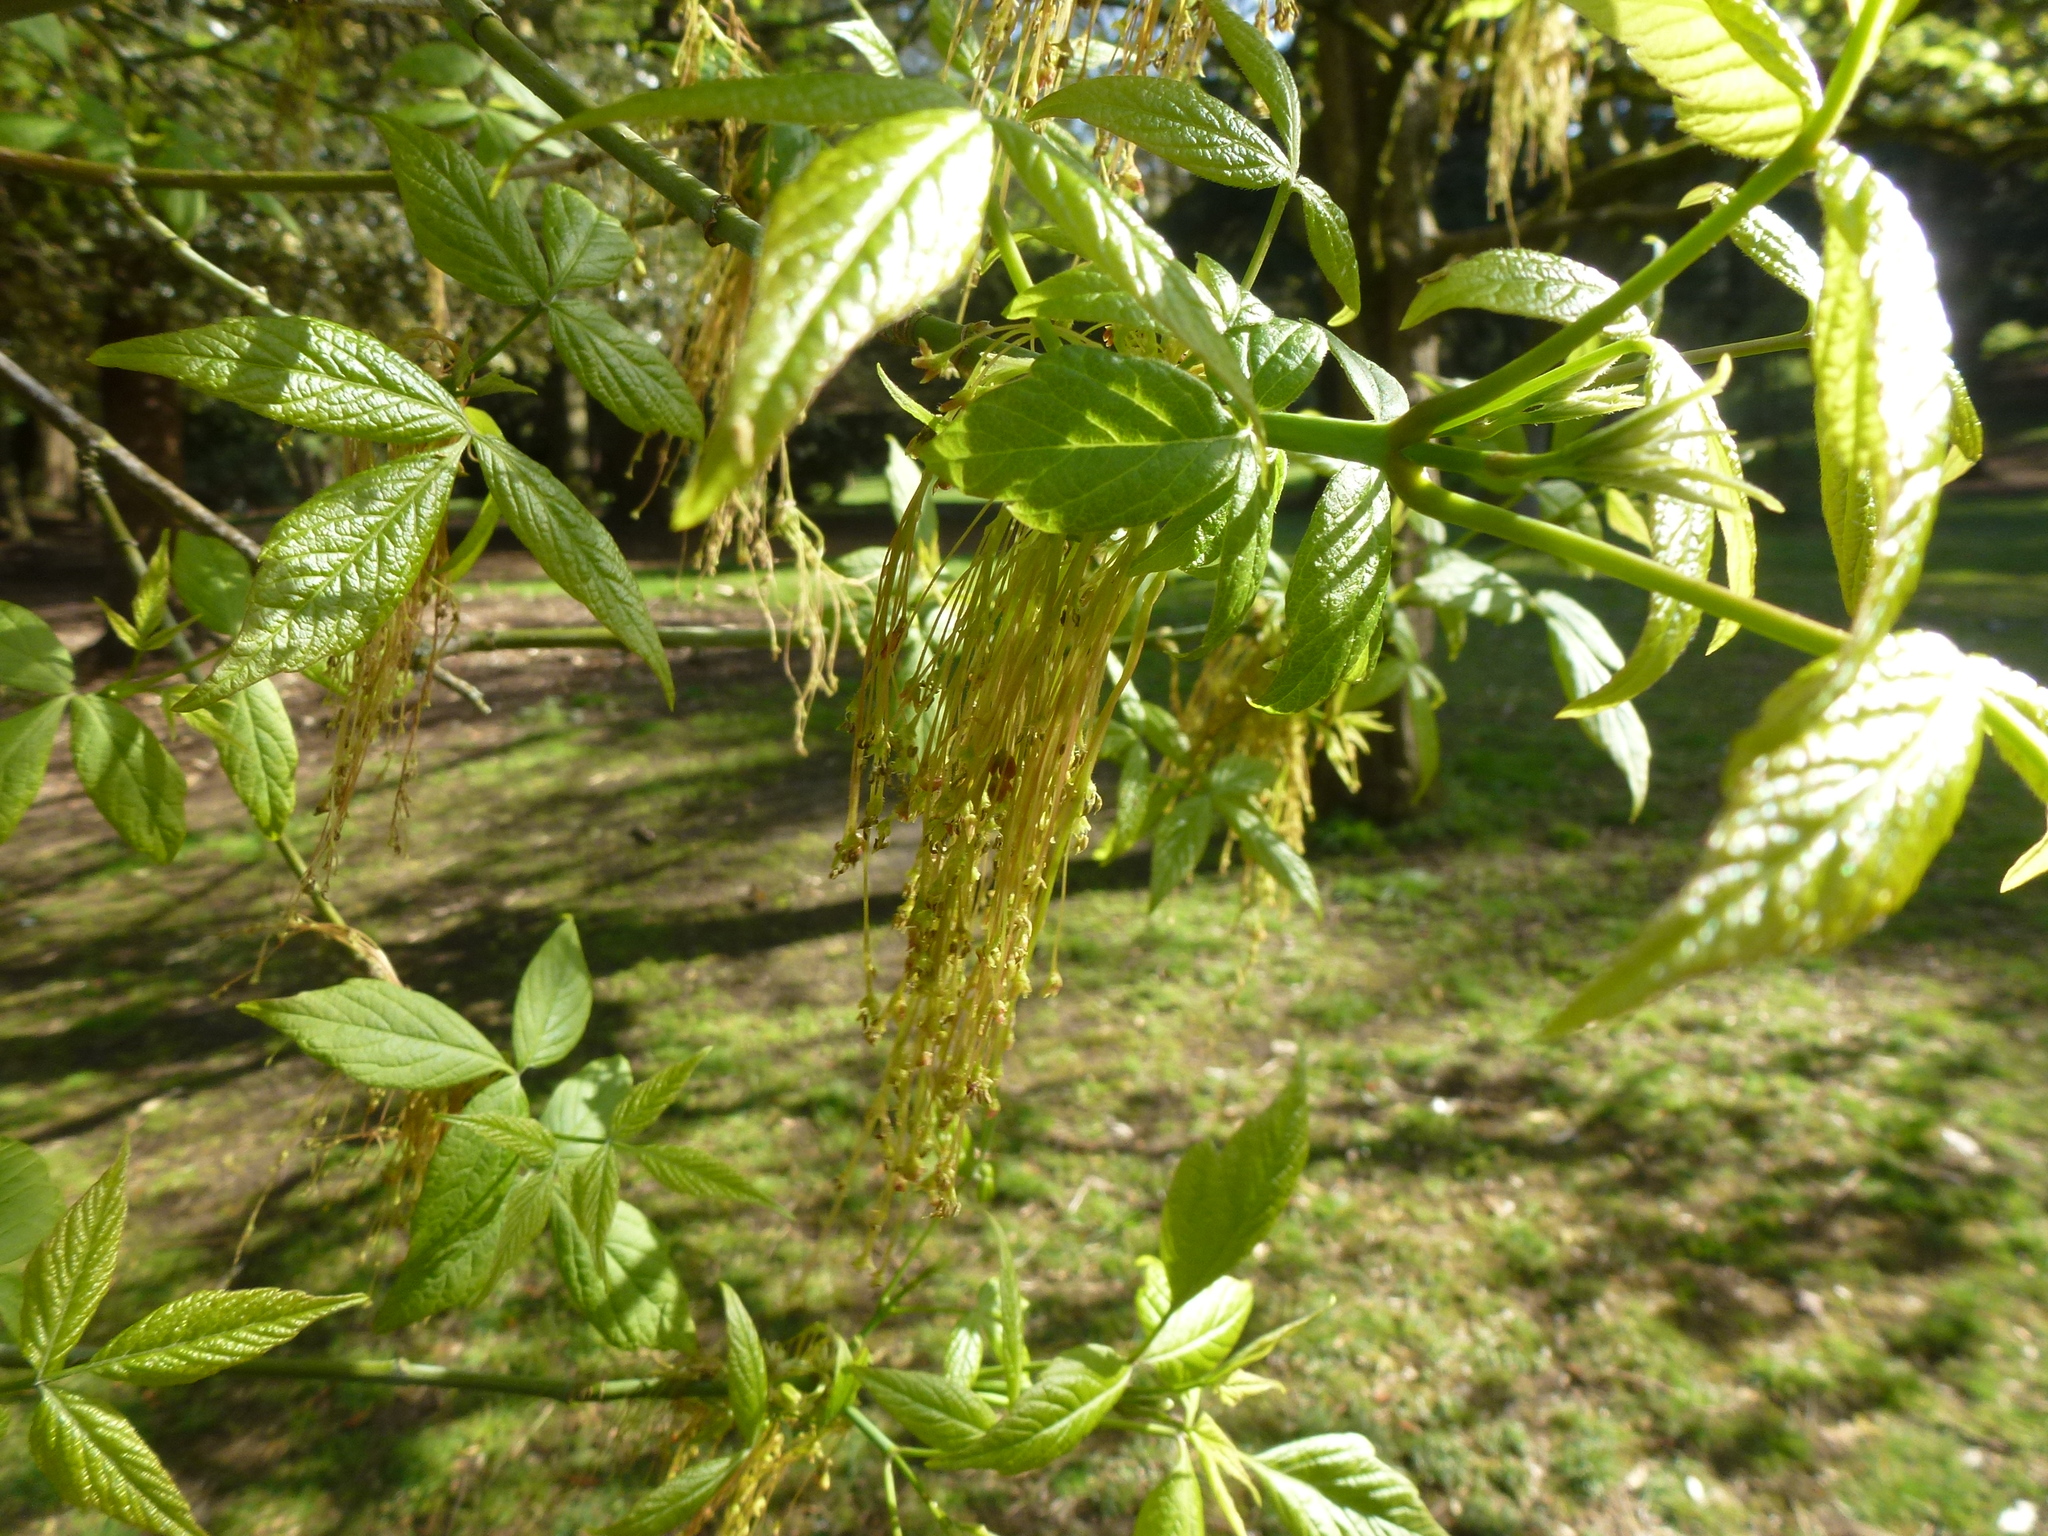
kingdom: Plantae
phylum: Tracheophyta
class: Magnoliopsida
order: Sapindales
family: Sapindaceae
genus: Acer
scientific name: Acer negundo
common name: Ashleaf maple
